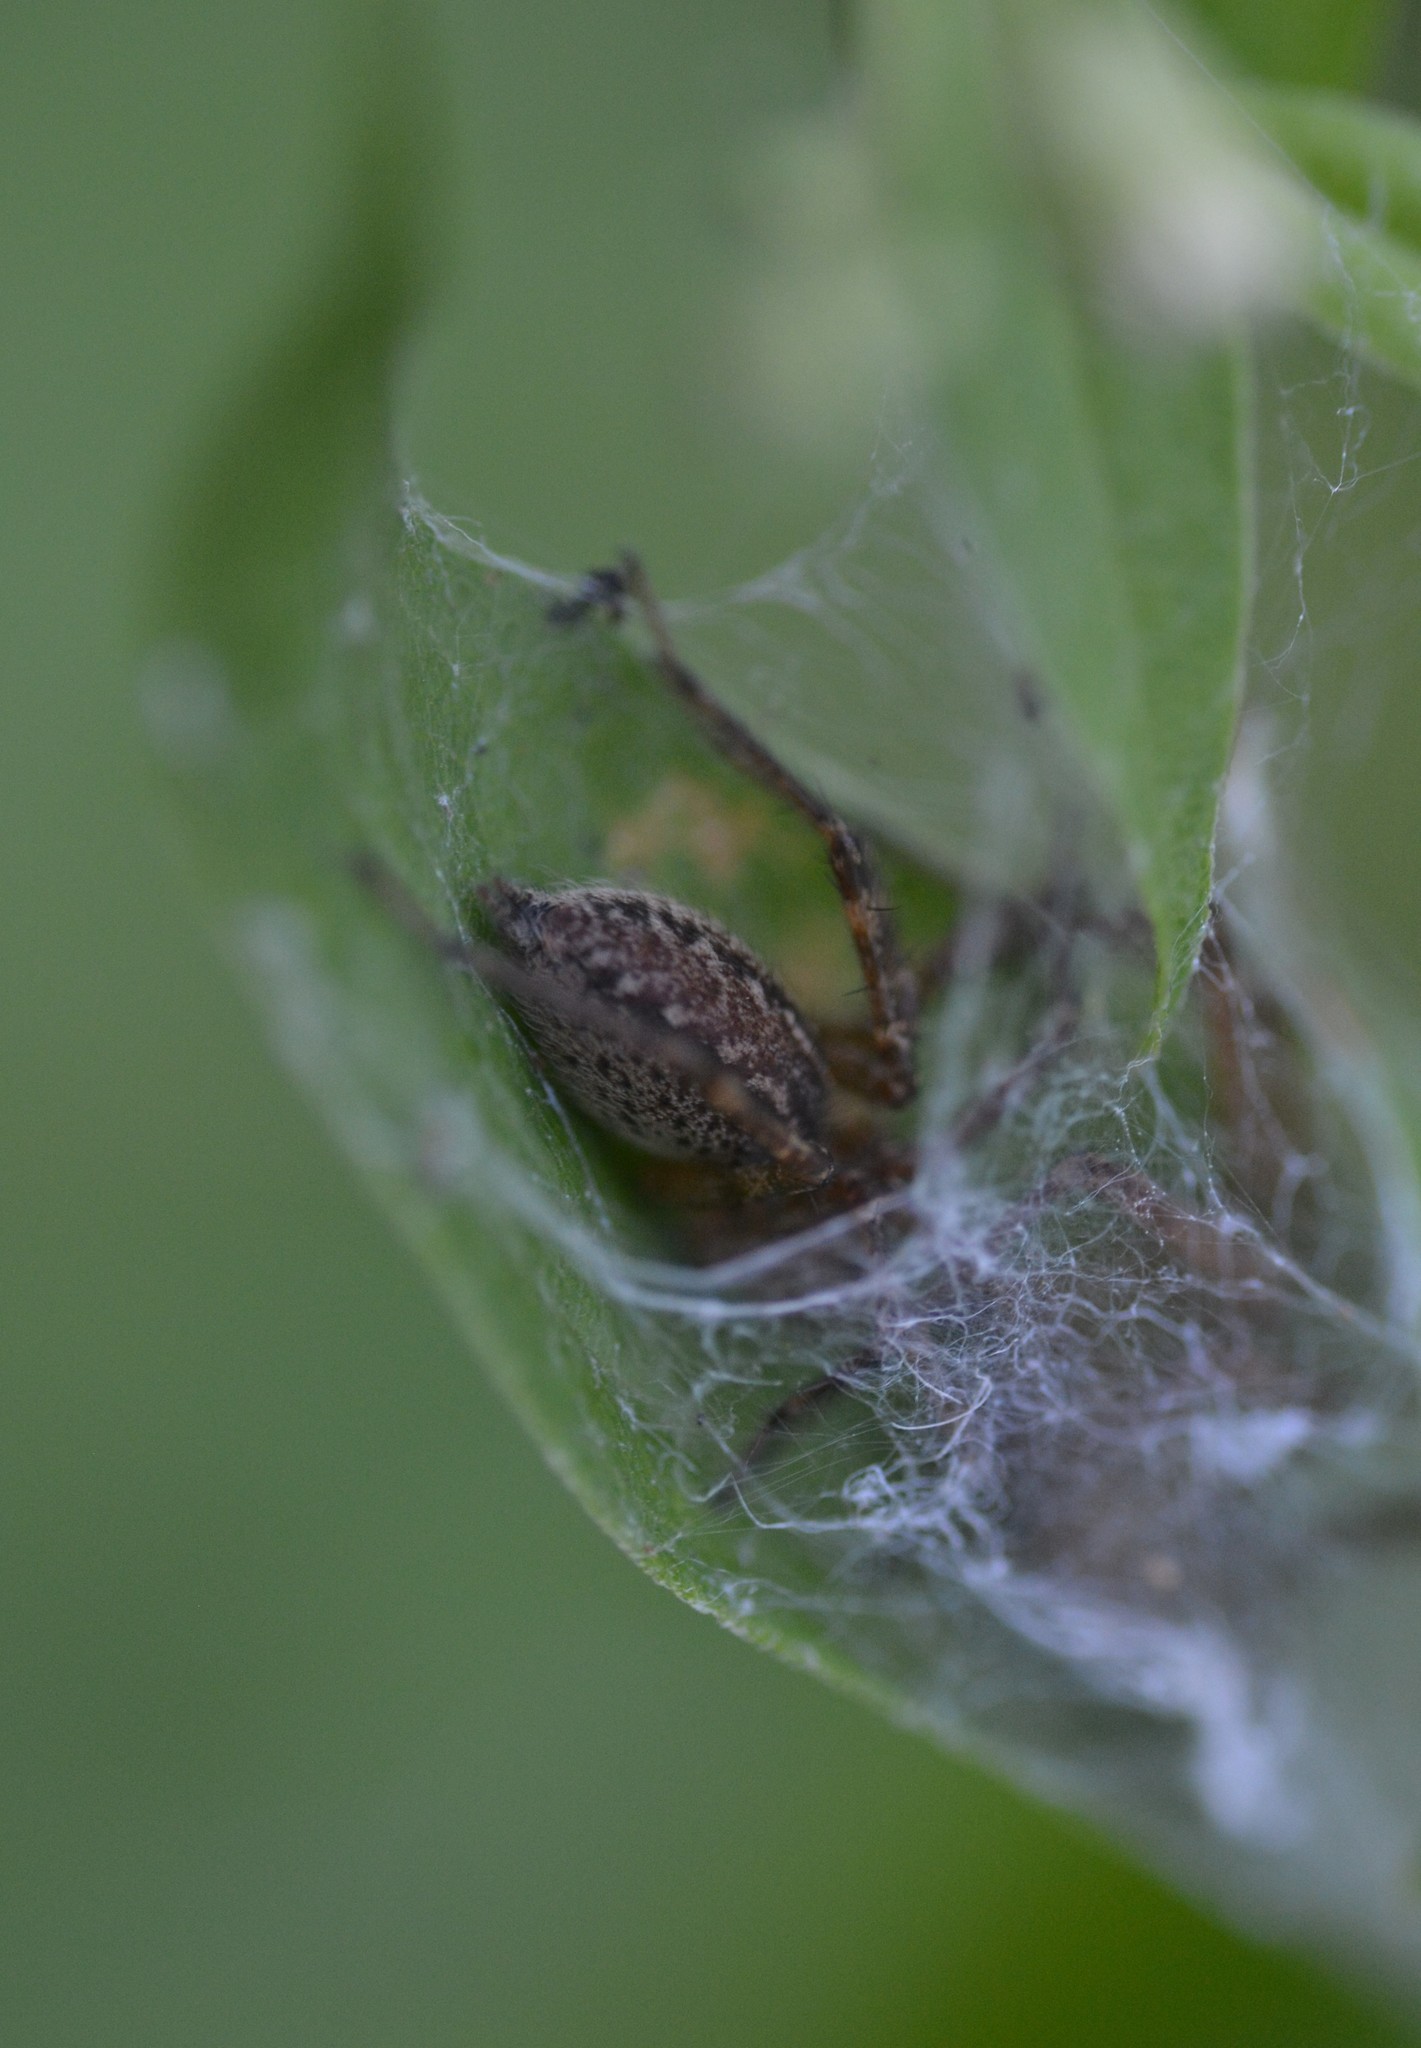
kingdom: Animalia
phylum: Arthropoda
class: Arachnida
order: Araneae
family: Agelenidae
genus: Agelenopsis
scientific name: Agelenopsis
